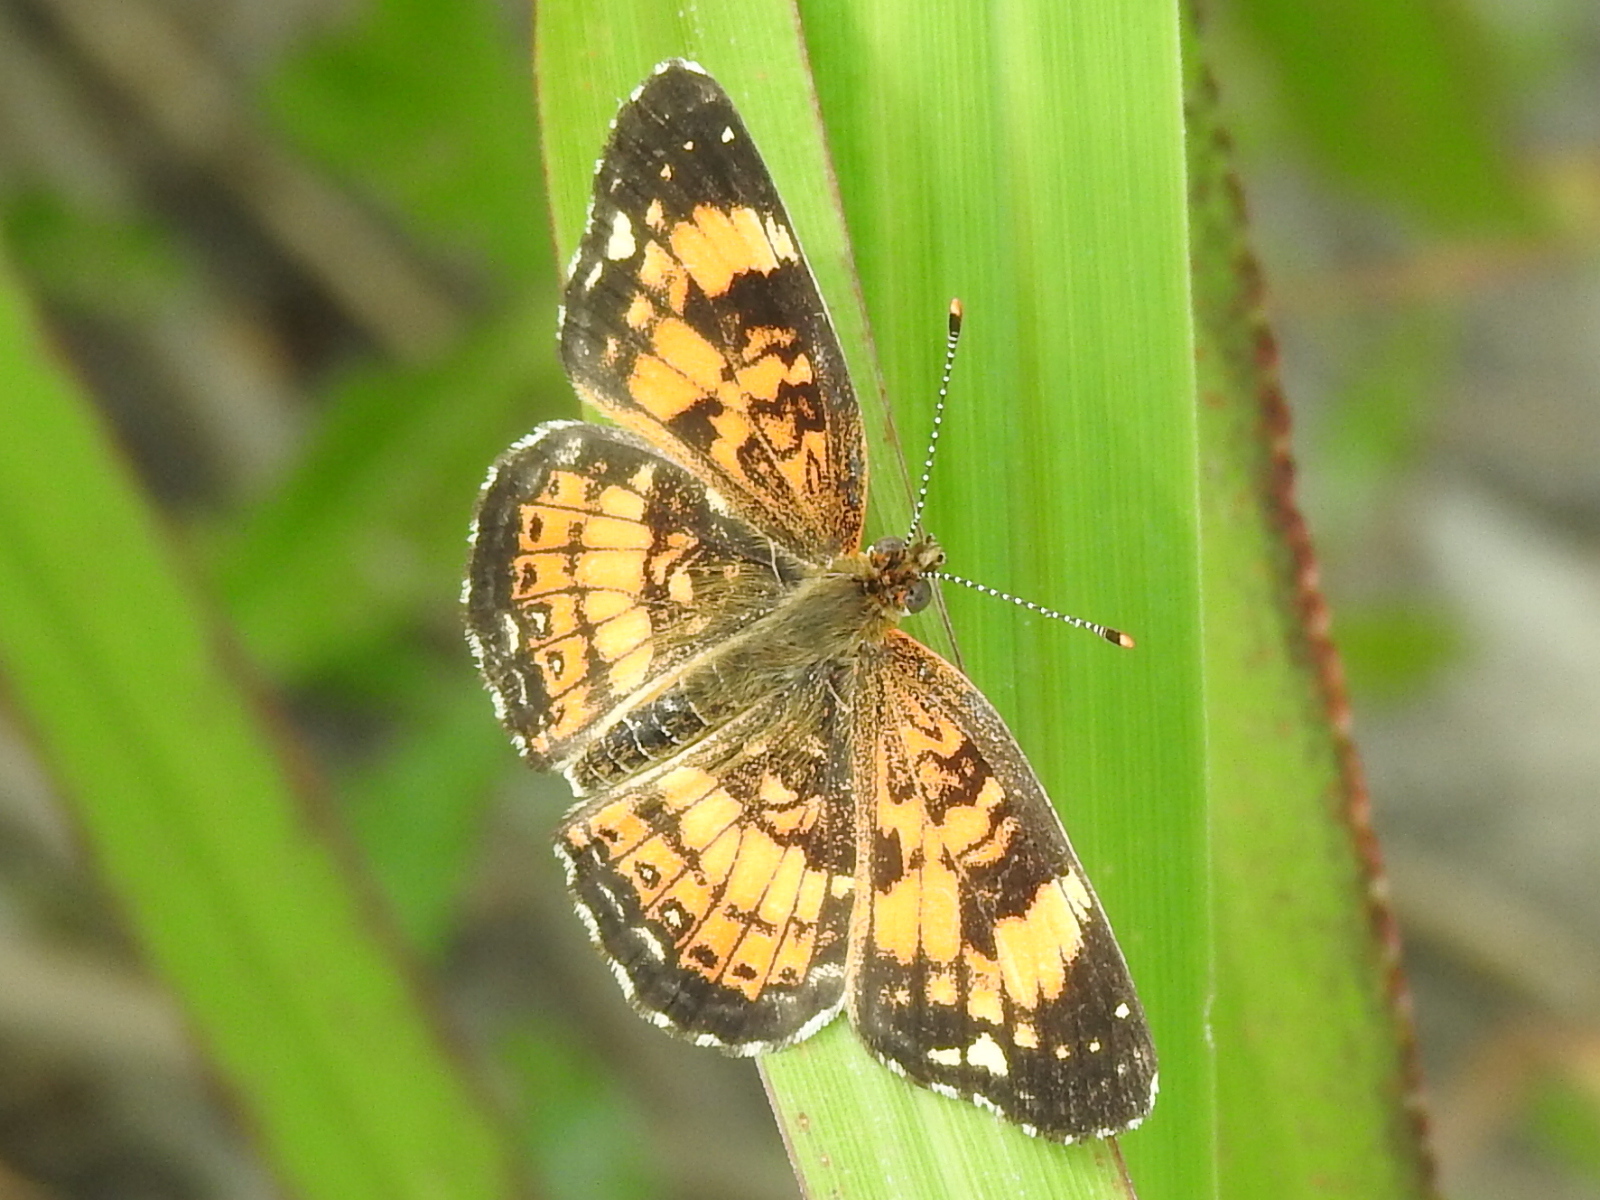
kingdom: Animalia
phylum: Arthropoda
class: Insecta
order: Lepidoptera
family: Nymphalidae
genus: Chlosyne
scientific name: Chlosyne nycteis
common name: Silvery checkerspot
